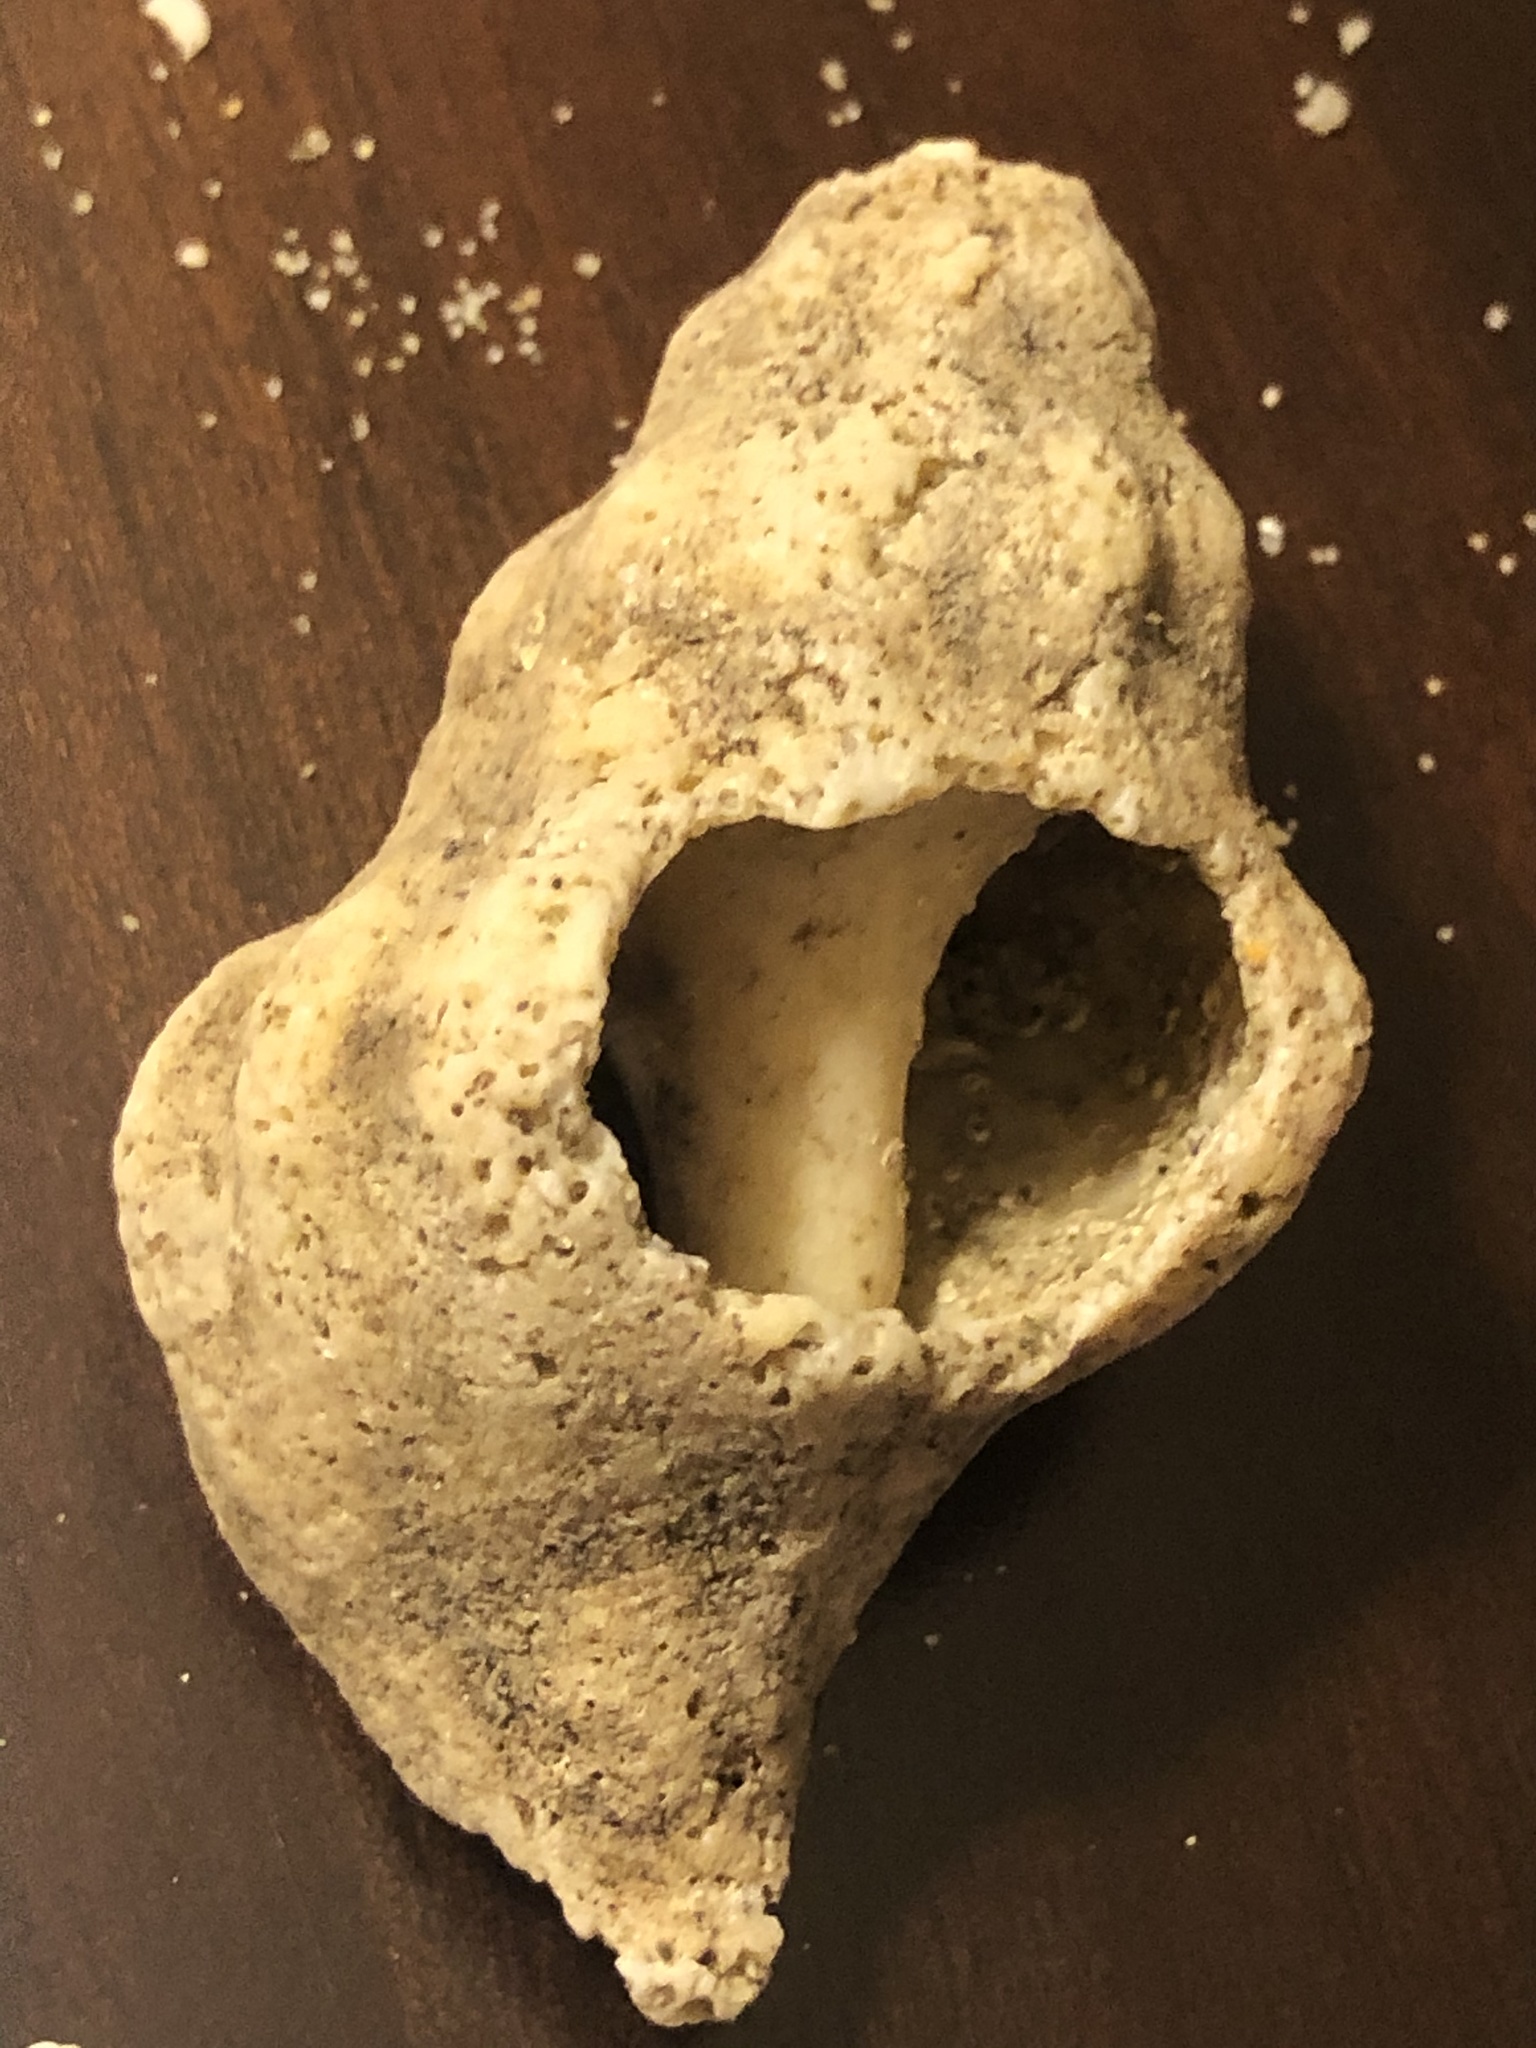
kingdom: Animalia
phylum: Mollusca
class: Gastropoda
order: Neogastropoda
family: Austrosiphonidae
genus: Kelletia
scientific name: Kelletia kelletii
